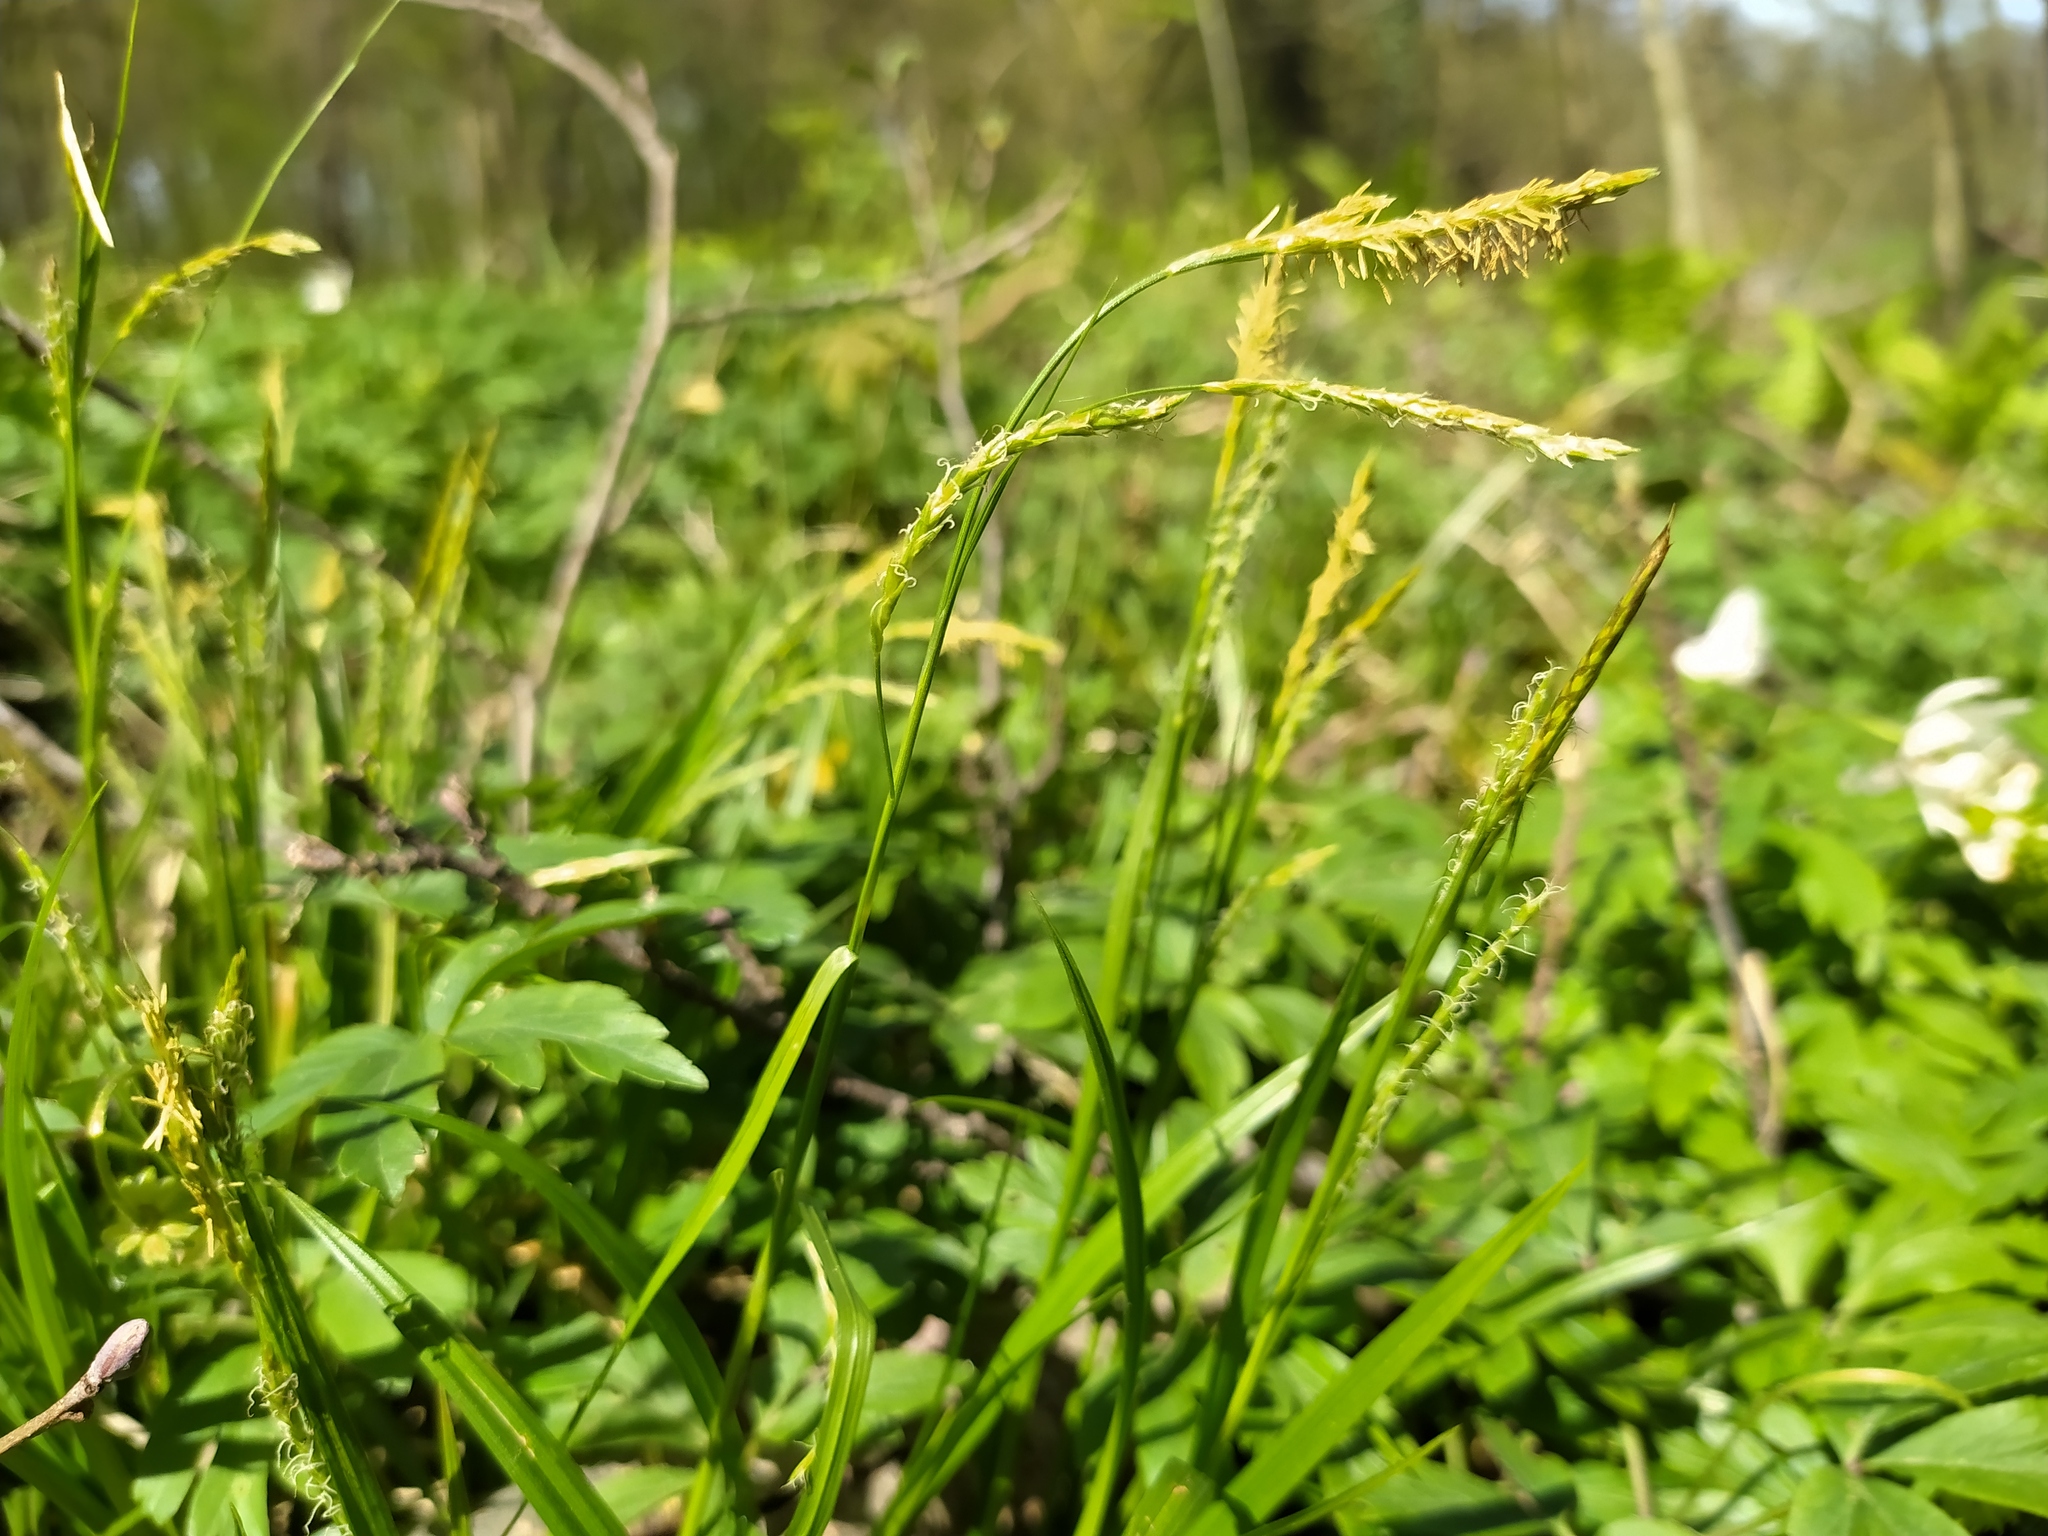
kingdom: Plantae
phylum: Tracheophyta
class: Liliopsida
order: Poales
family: Cyperaceae
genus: Carex
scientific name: Carex sylvatica
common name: Wood-sedge
